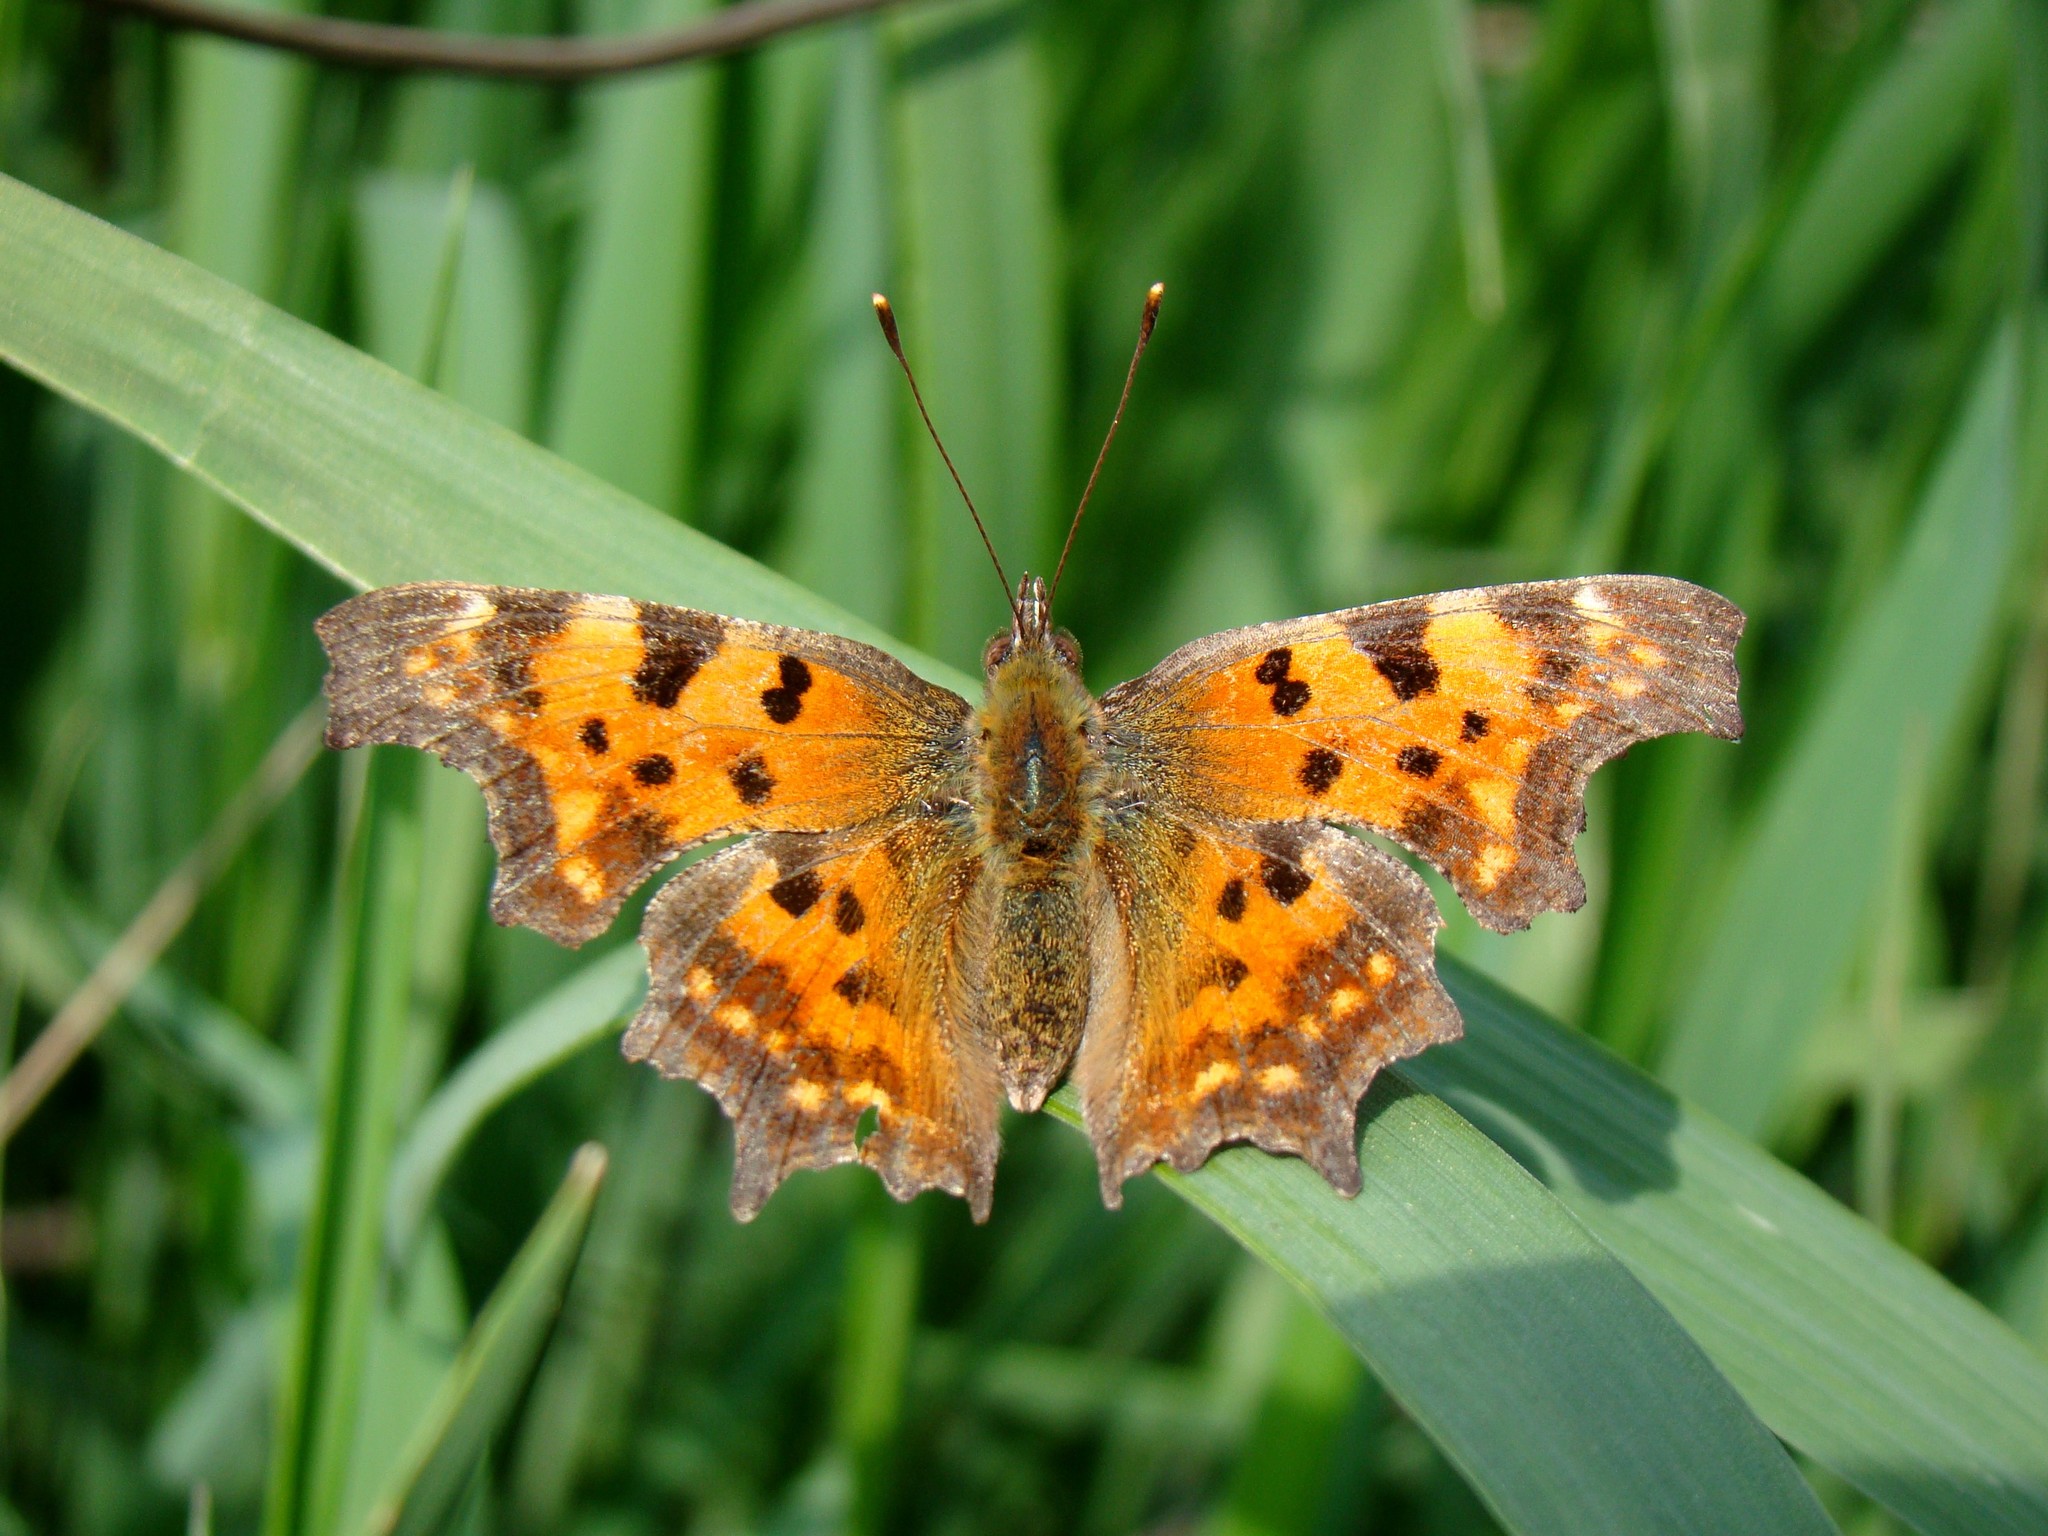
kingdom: Animalia
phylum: Arthropoda
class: Insecta
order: Lepidoptera
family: Nymphalidae
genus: Polygonia
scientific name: Polygonia c-album
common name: Comma
